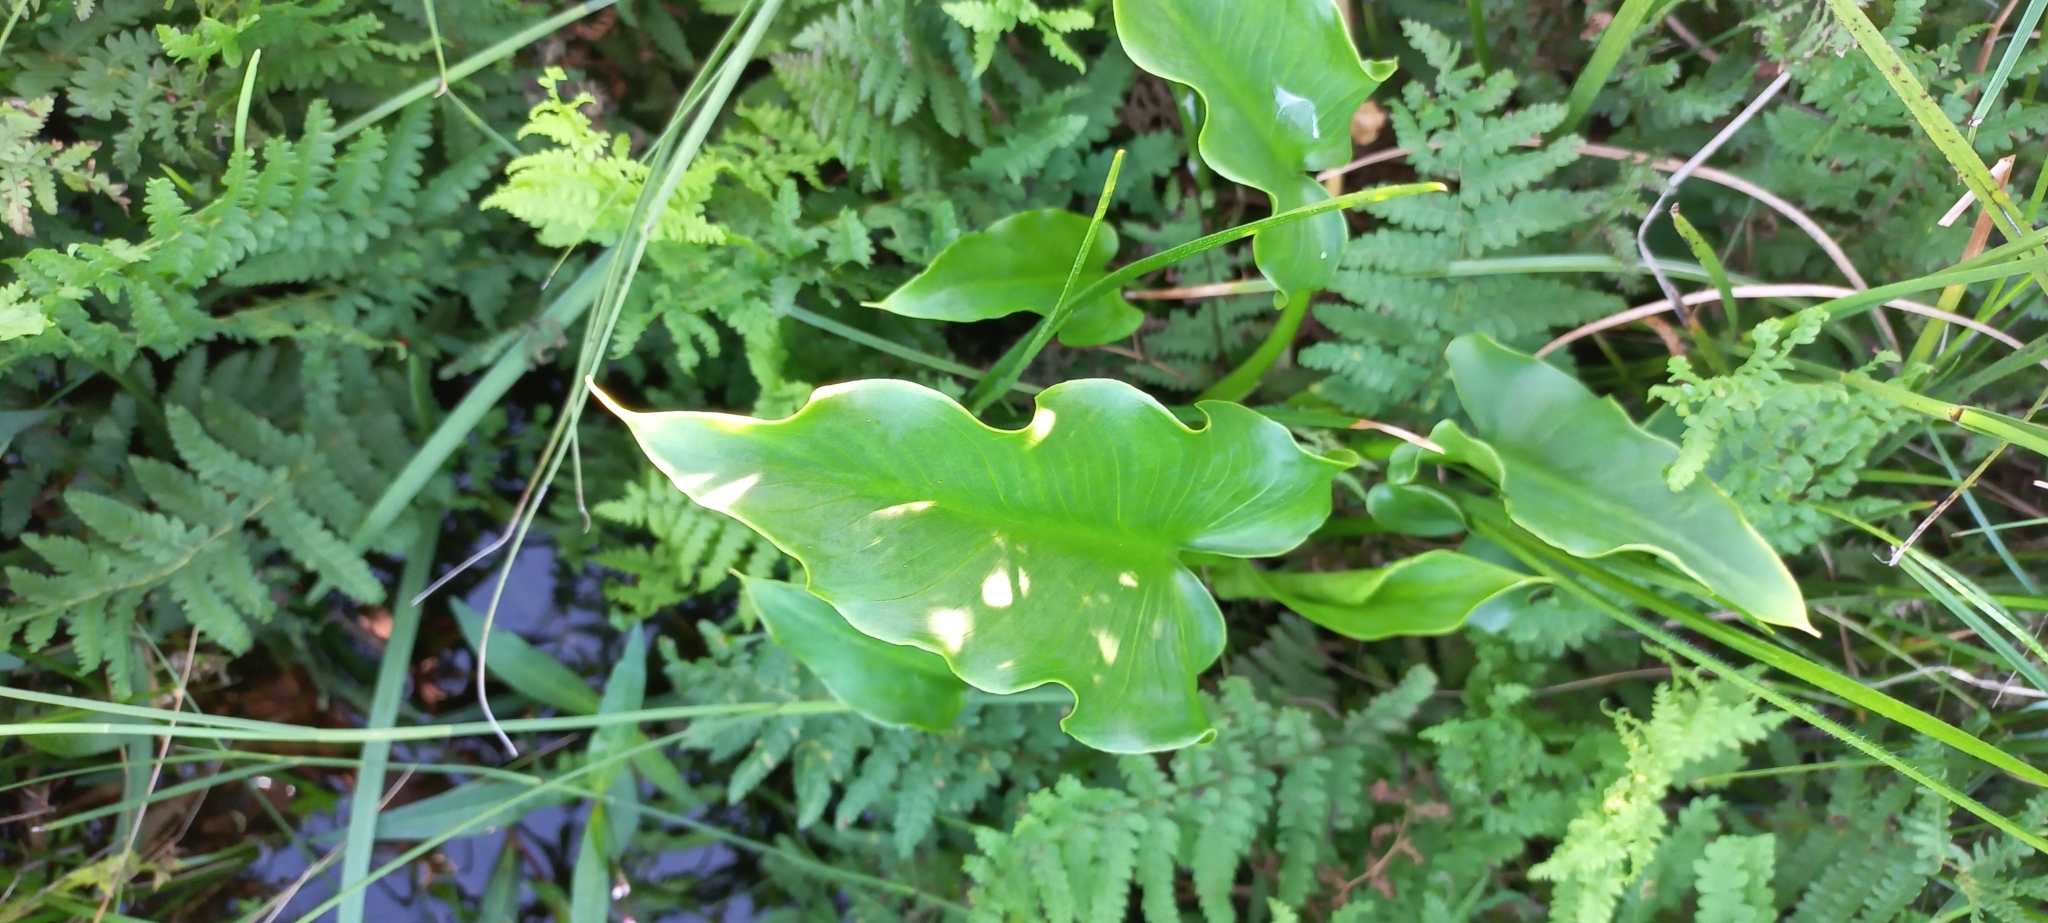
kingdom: Plantae
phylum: Tracheophyta
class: Liliopsida
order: Alismatales
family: Araceae
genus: Zantedeschia
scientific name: Zantedeschia aethiopica
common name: Altar-lily
